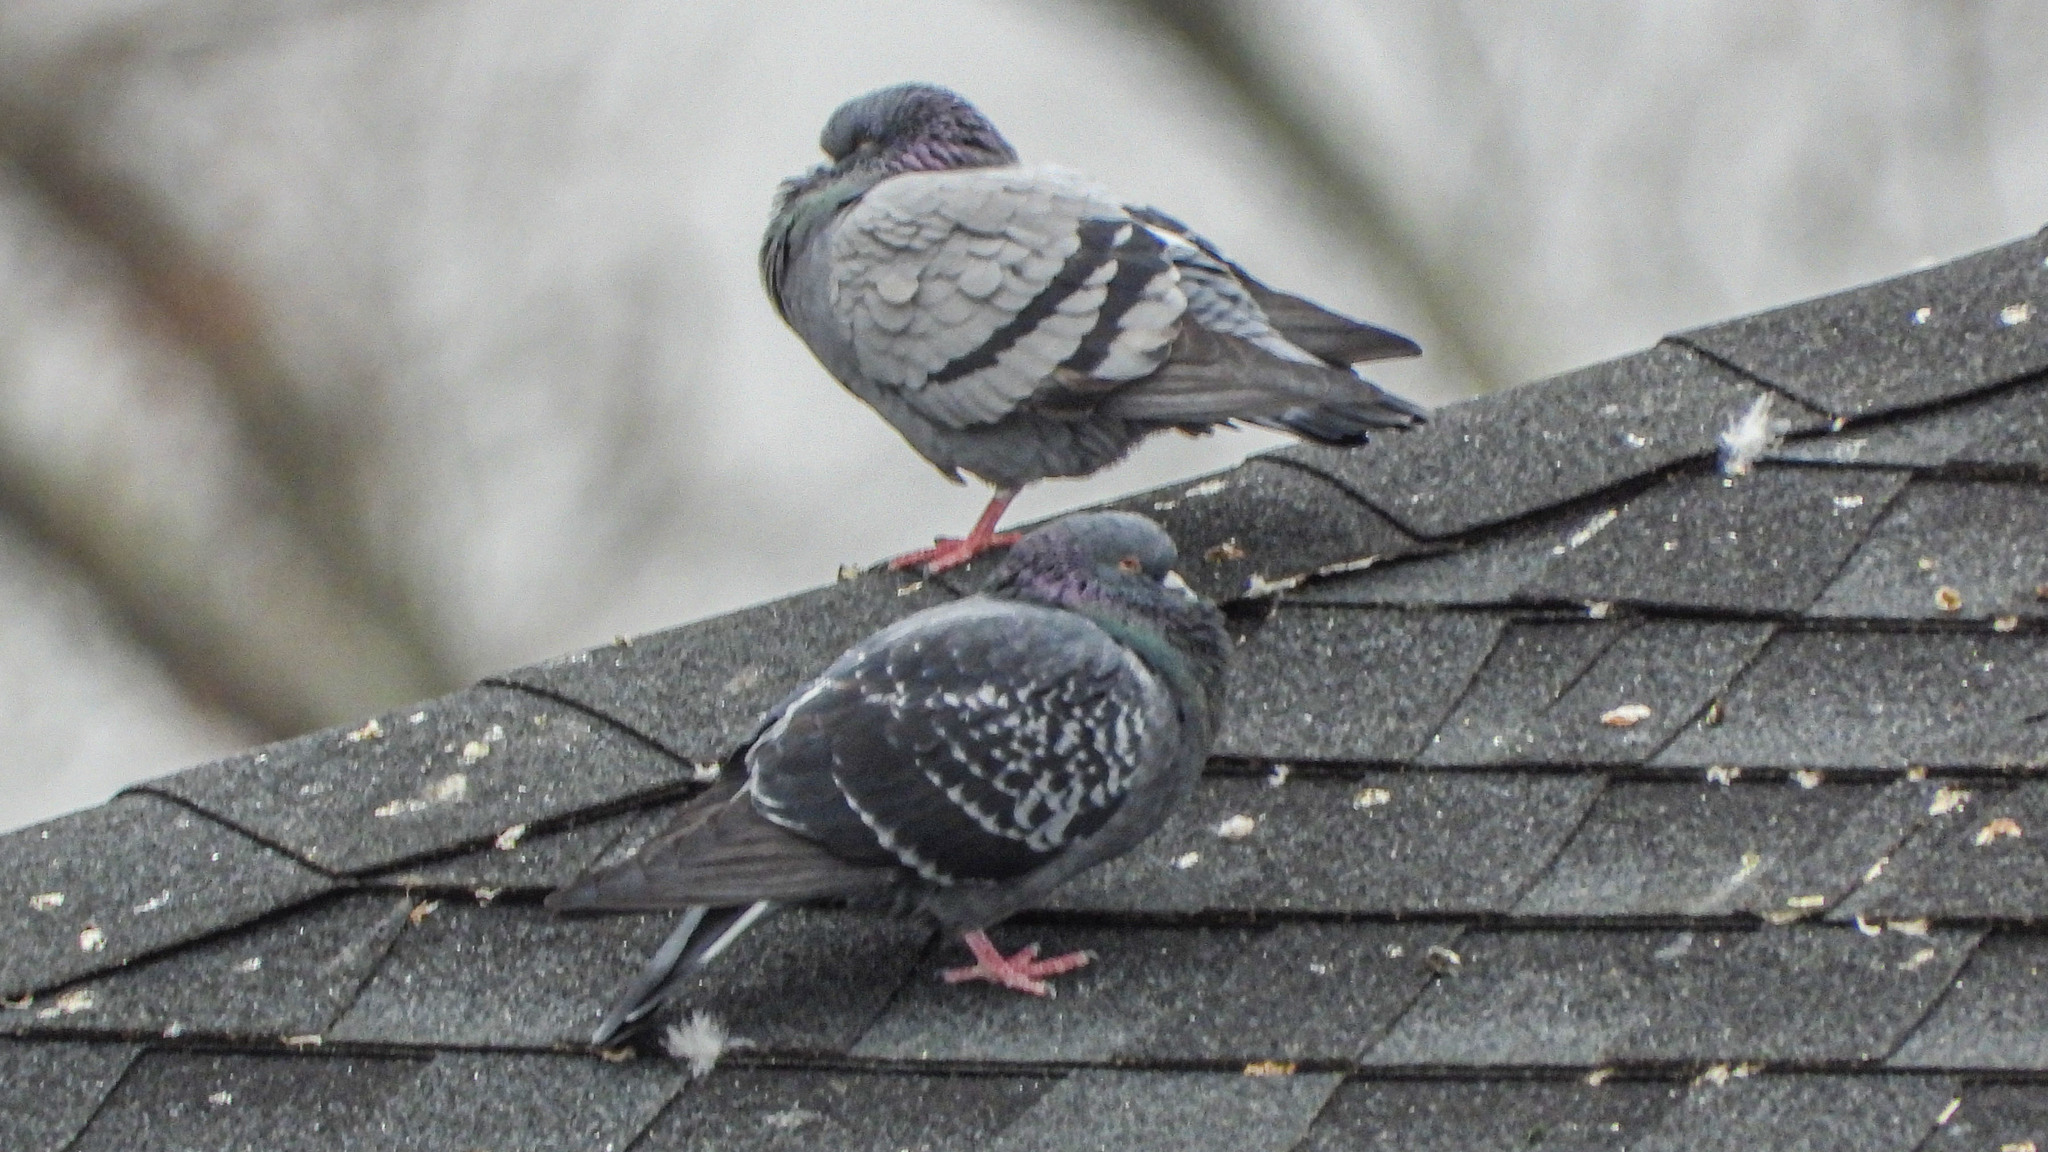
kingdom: Animalia
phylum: Chordata
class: Aves
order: Columbiformes
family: Columbidae
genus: Columba
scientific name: Columba livia
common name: Rock pigeon
